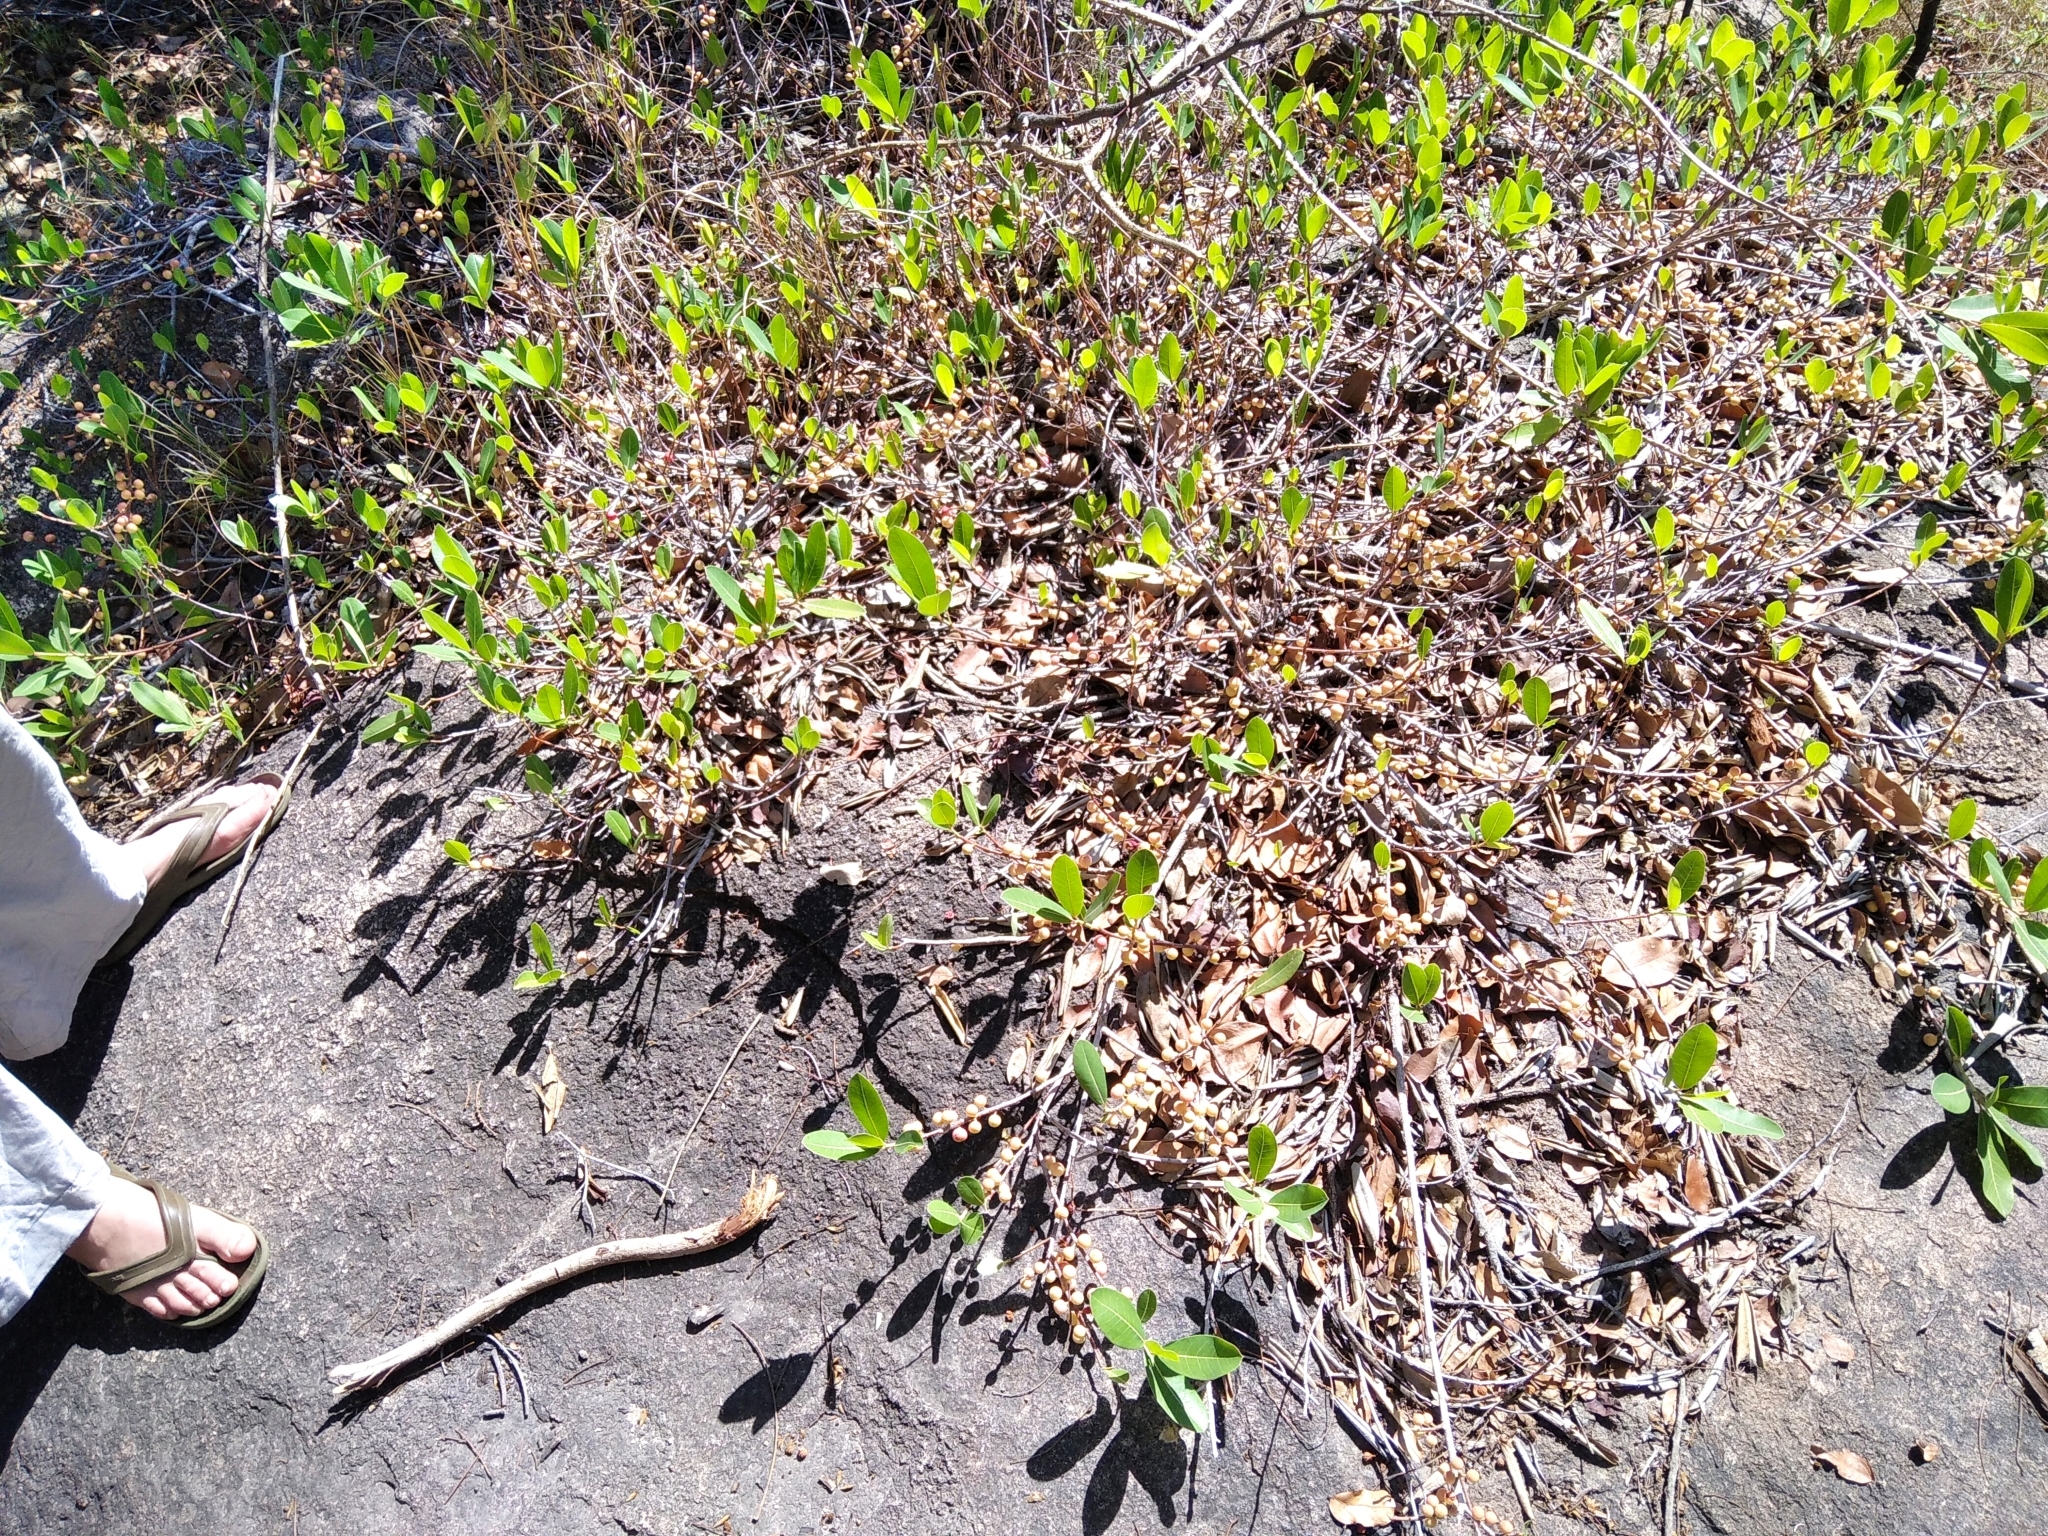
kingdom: Plantae
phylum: Tracheophyta
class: Magnoliopsida
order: Rosales
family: Moraceae
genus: Ficus
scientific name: Ficus verruculosa
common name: Water fig
